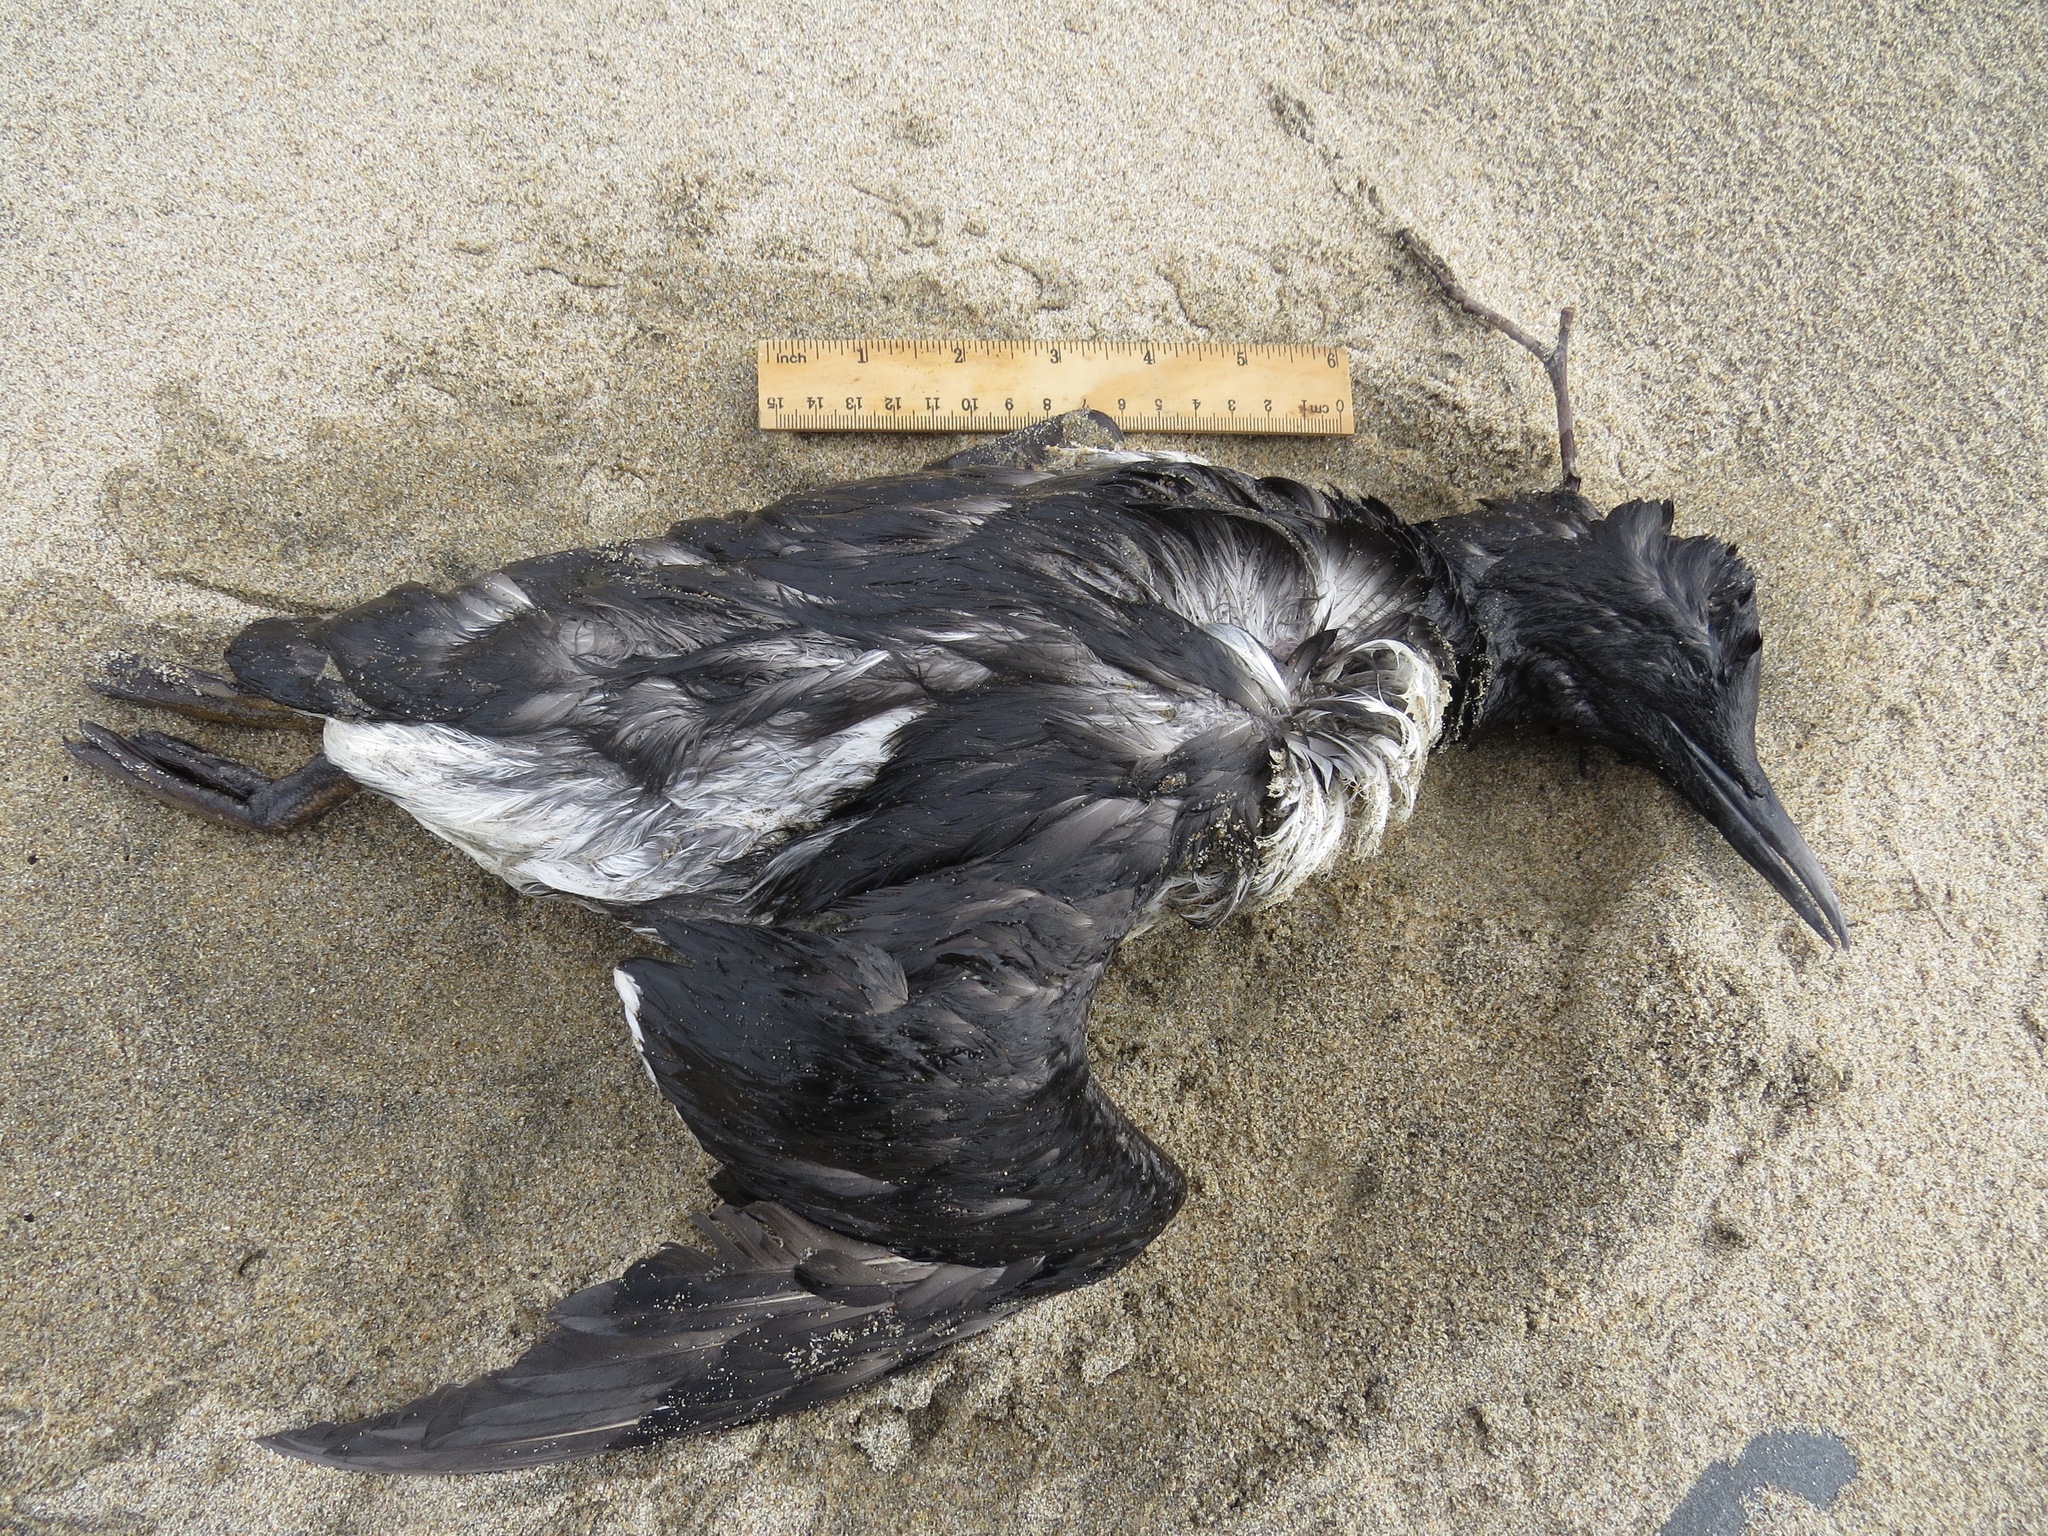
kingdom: Animalia
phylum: Chordata
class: Aves
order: Charadriiformes
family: Alcidae
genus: Uria
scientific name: Uria aalge
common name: Common murre
